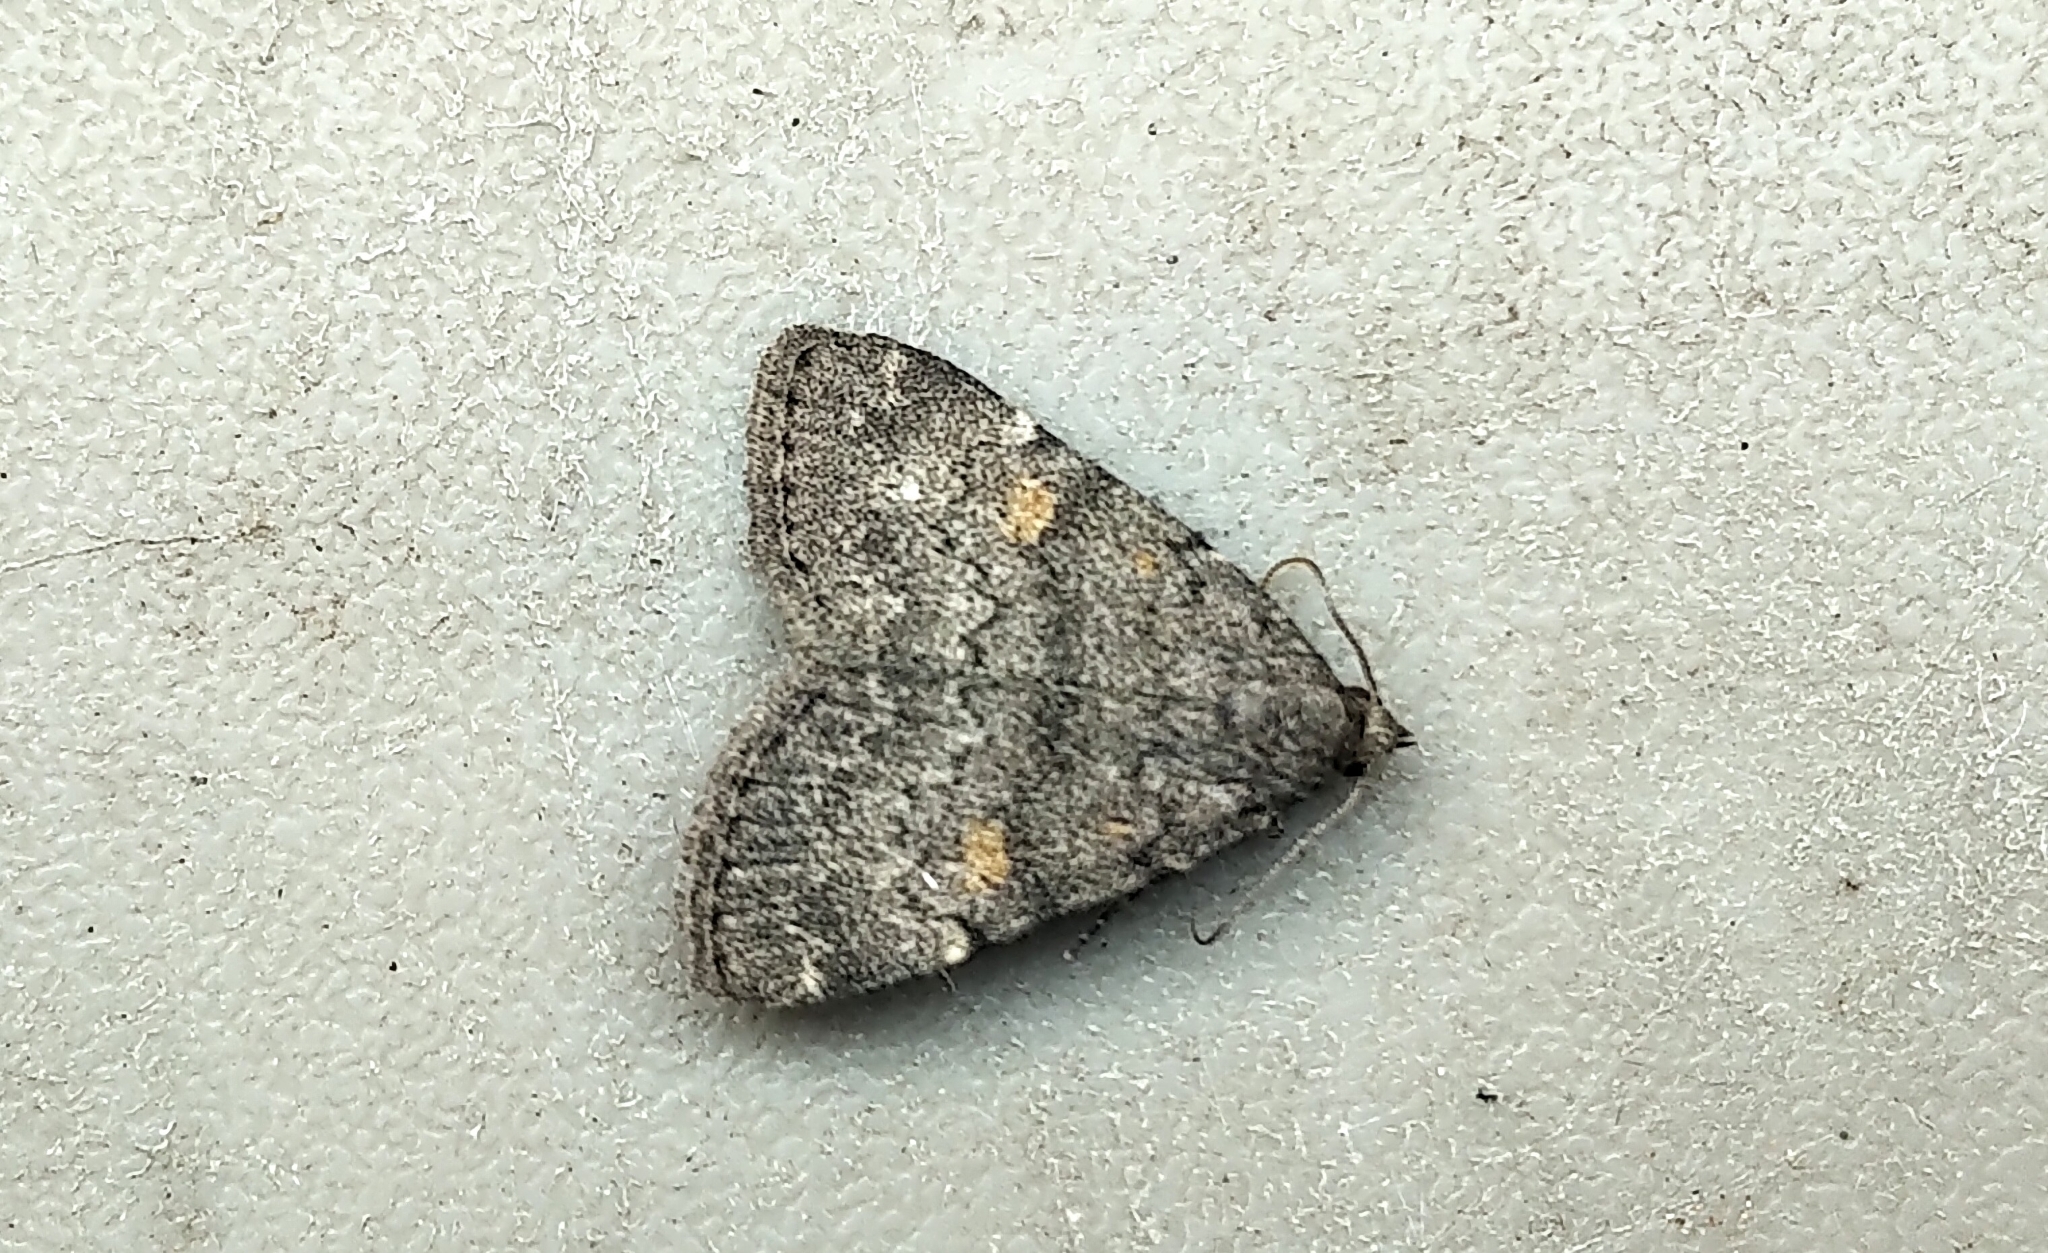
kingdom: Animalia
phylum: Arthropoda
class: Insecta
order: Lepidoptera
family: Erebidae
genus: Idia
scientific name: Idia aemula
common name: Common idia moth
